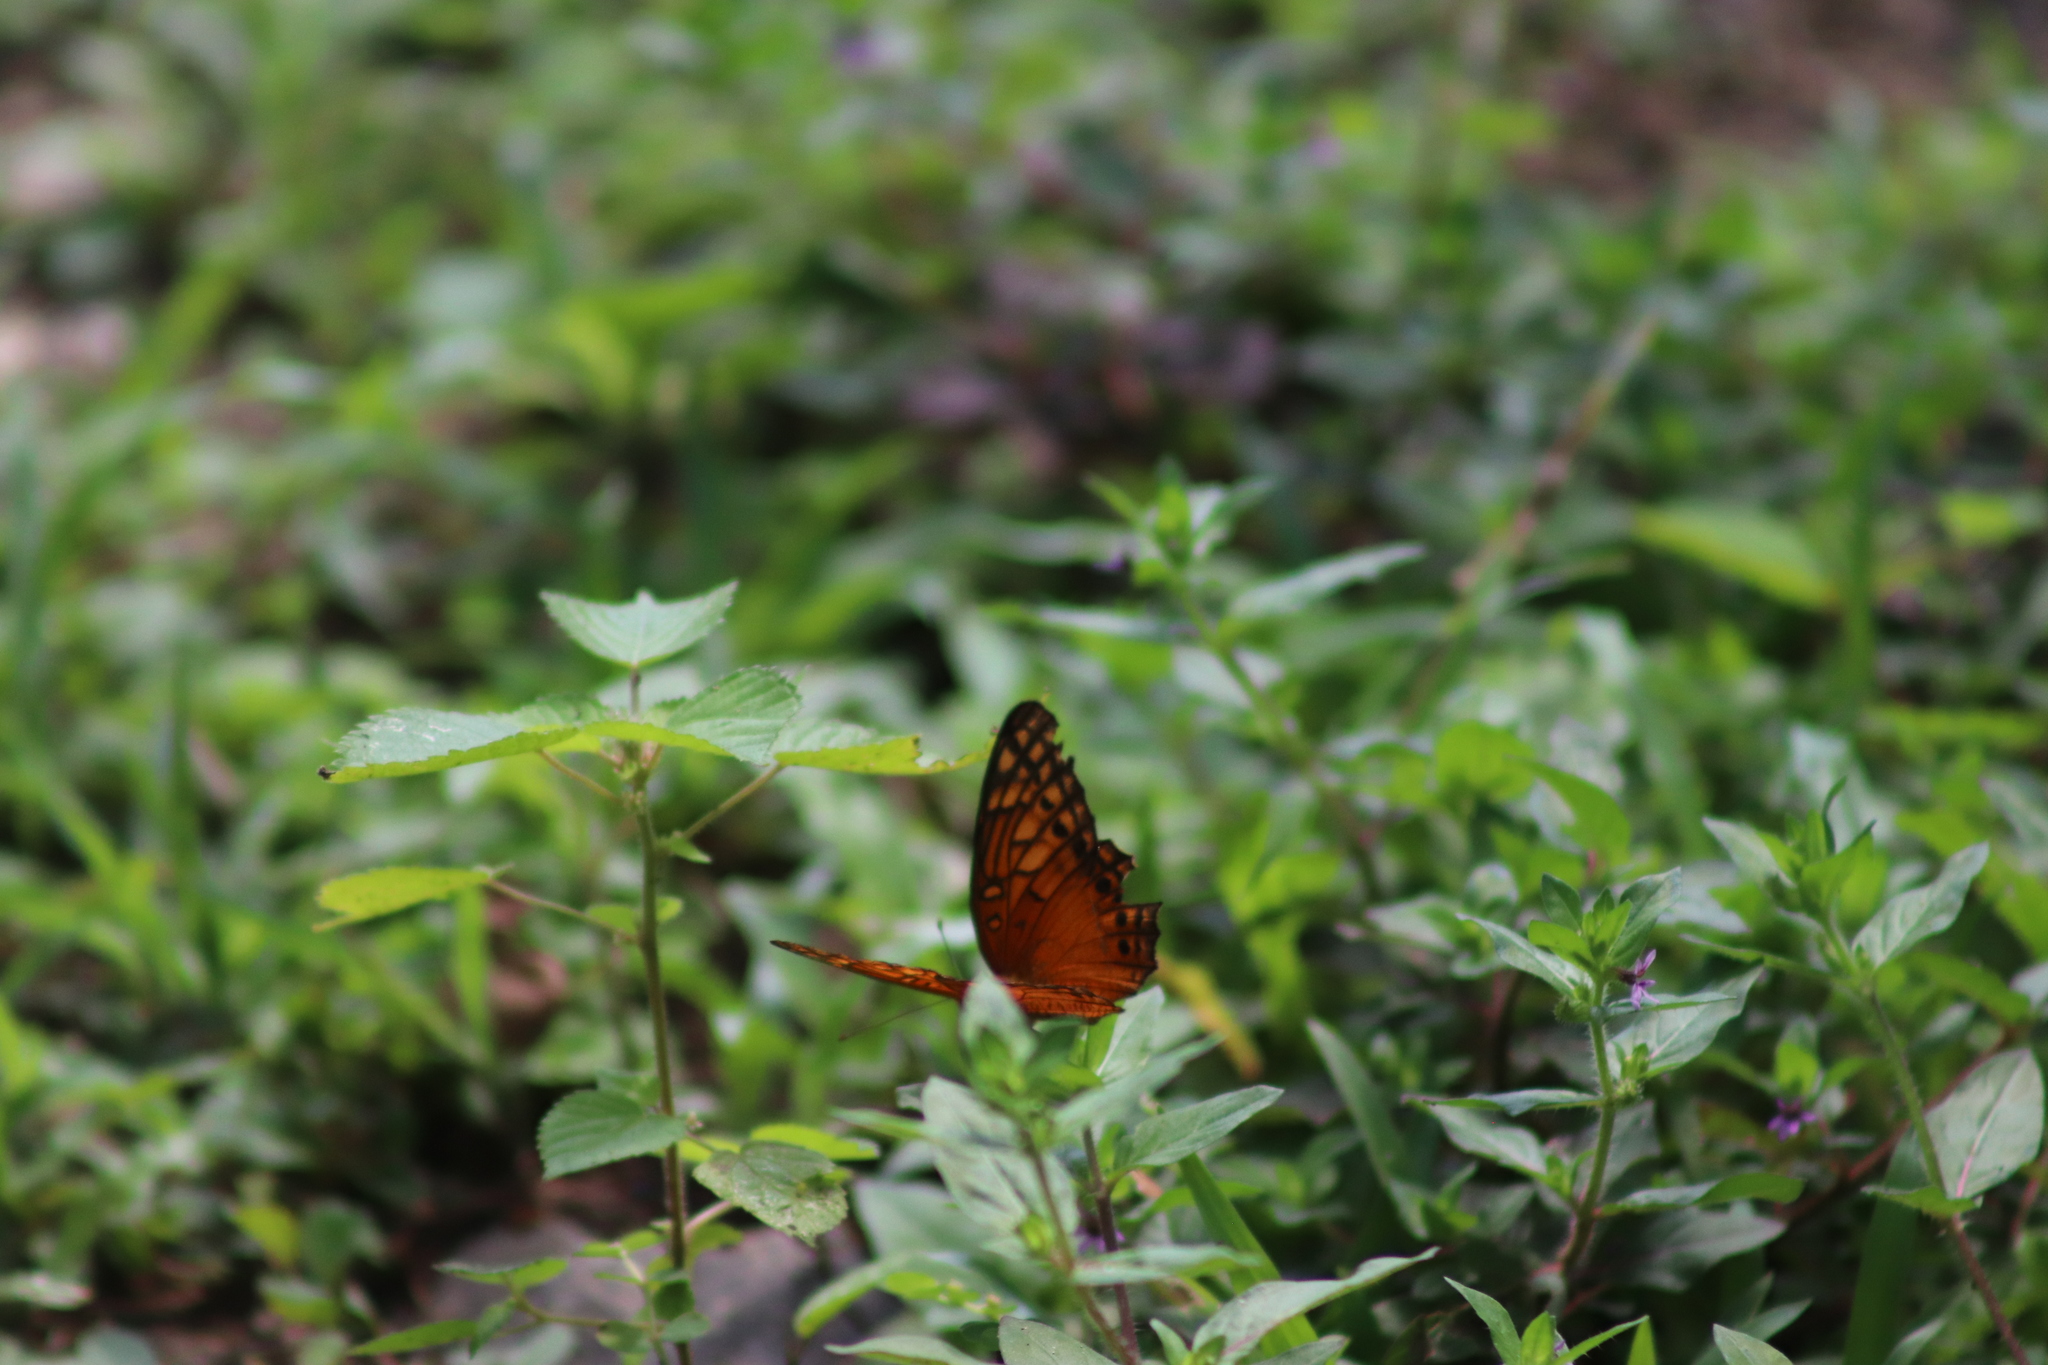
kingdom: Animalia
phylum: Arthropoda
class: Insecta
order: Lepidoptera
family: Nymphalidae
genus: Euptoieta
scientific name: Euptoieta hegesia
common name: Mexican fritillary
